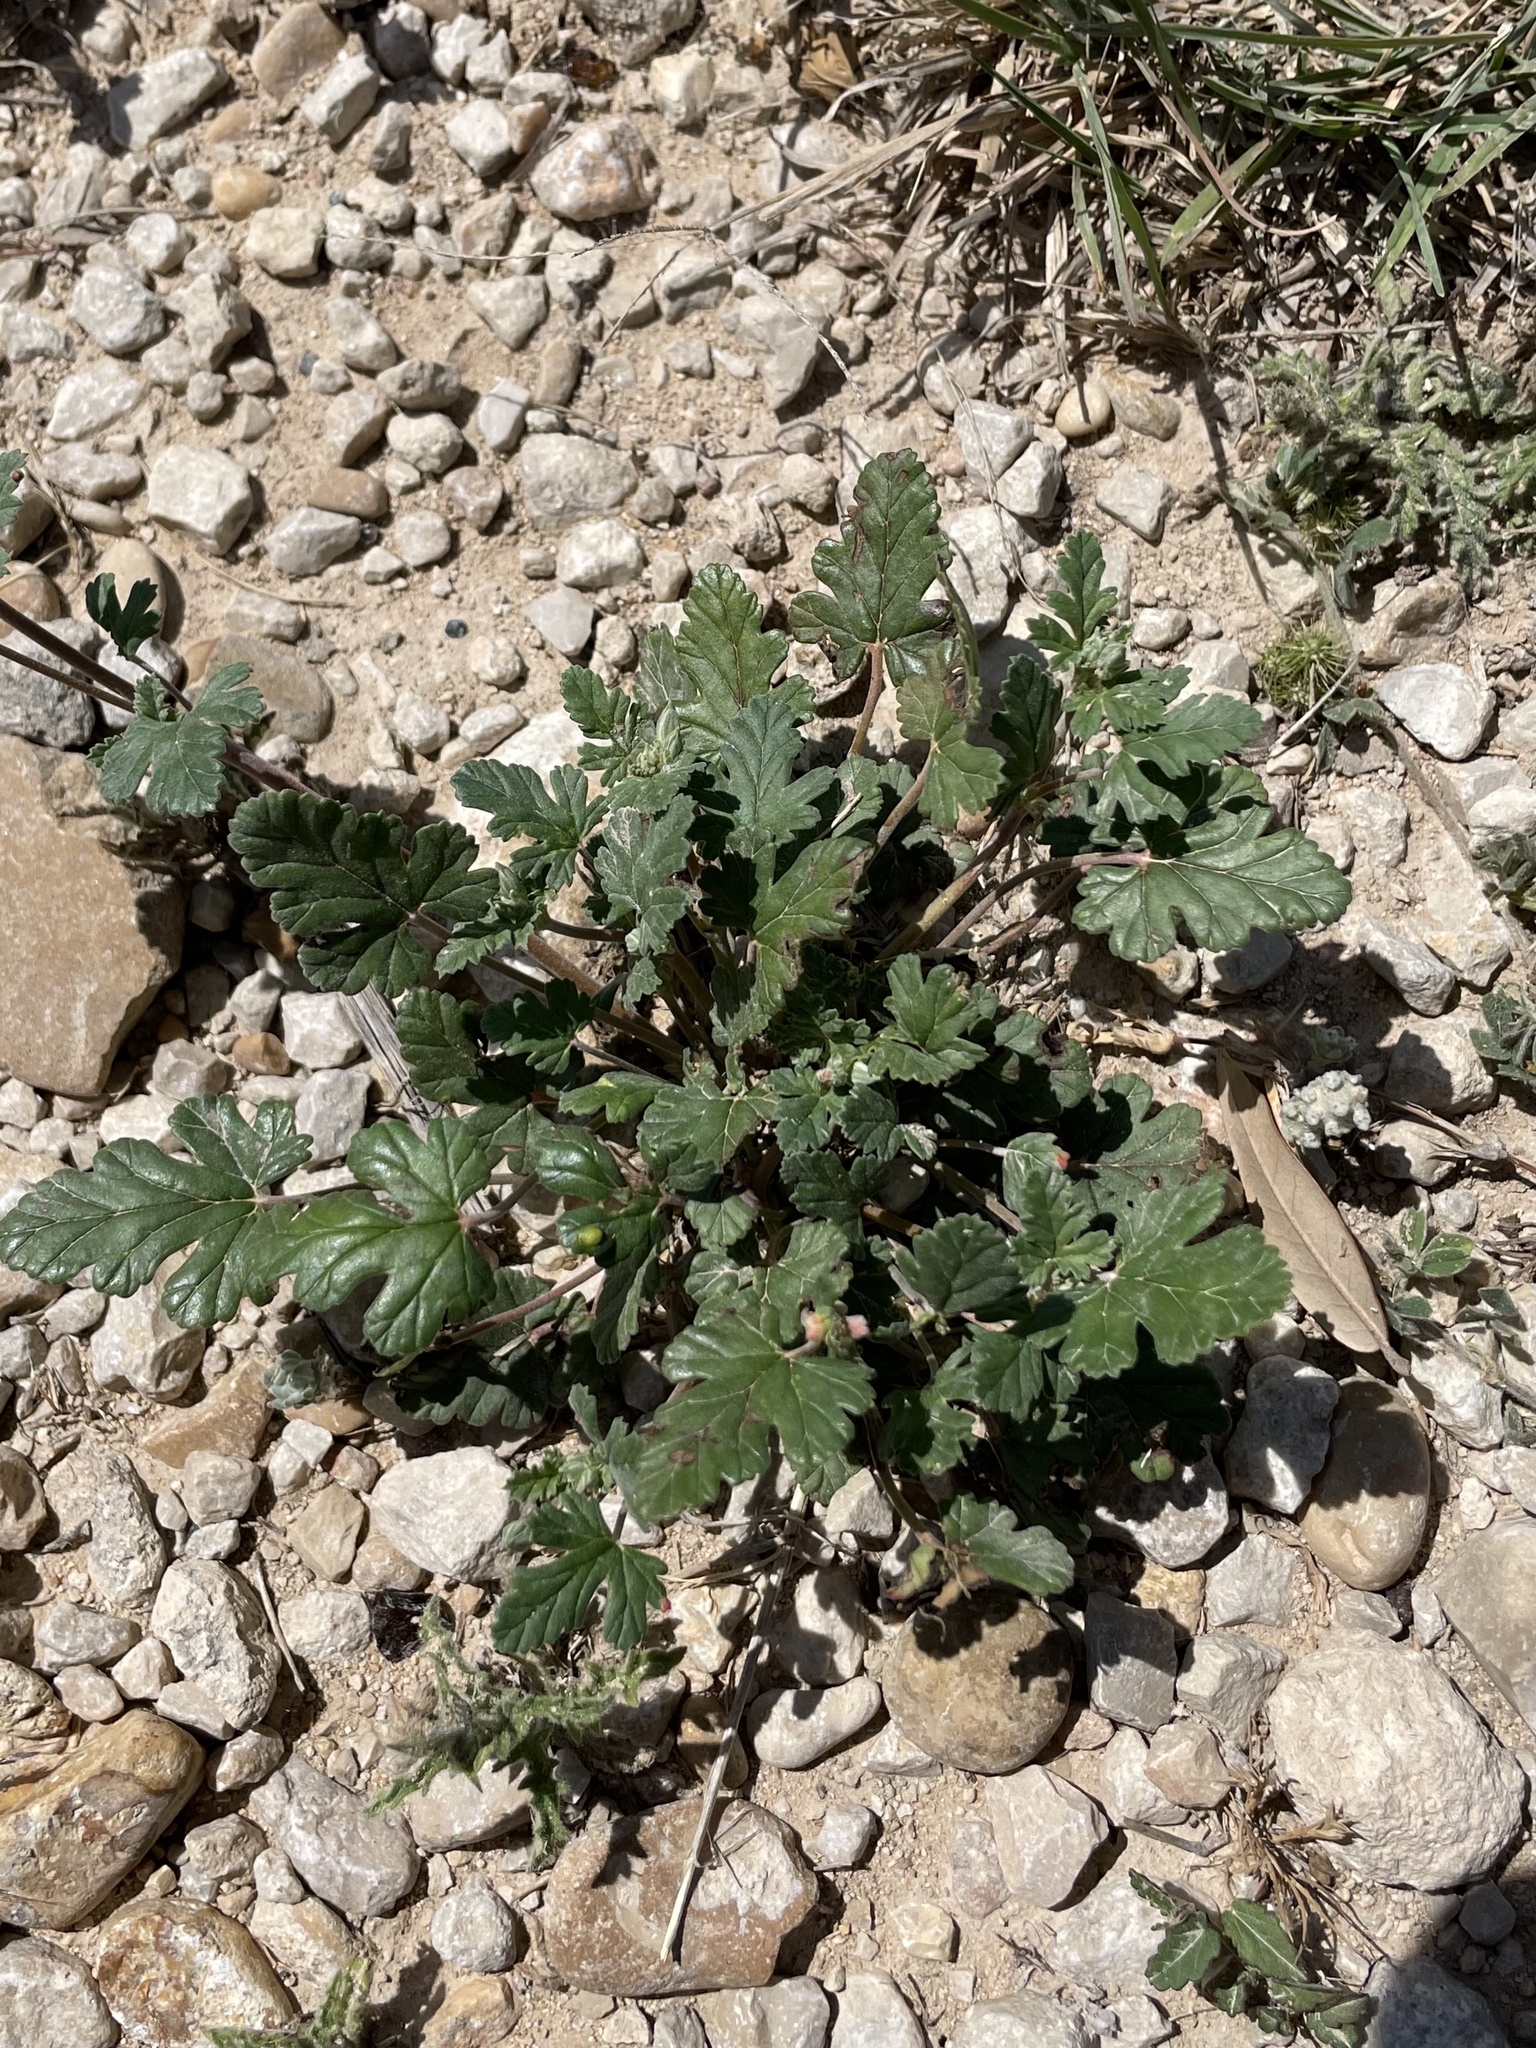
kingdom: Plantae
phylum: Tracheophyta
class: Magnoliopsida
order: Geraniales
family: Geraniaceae
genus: Erodium
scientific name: Erodium texanum
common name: Texas stork's-bill
